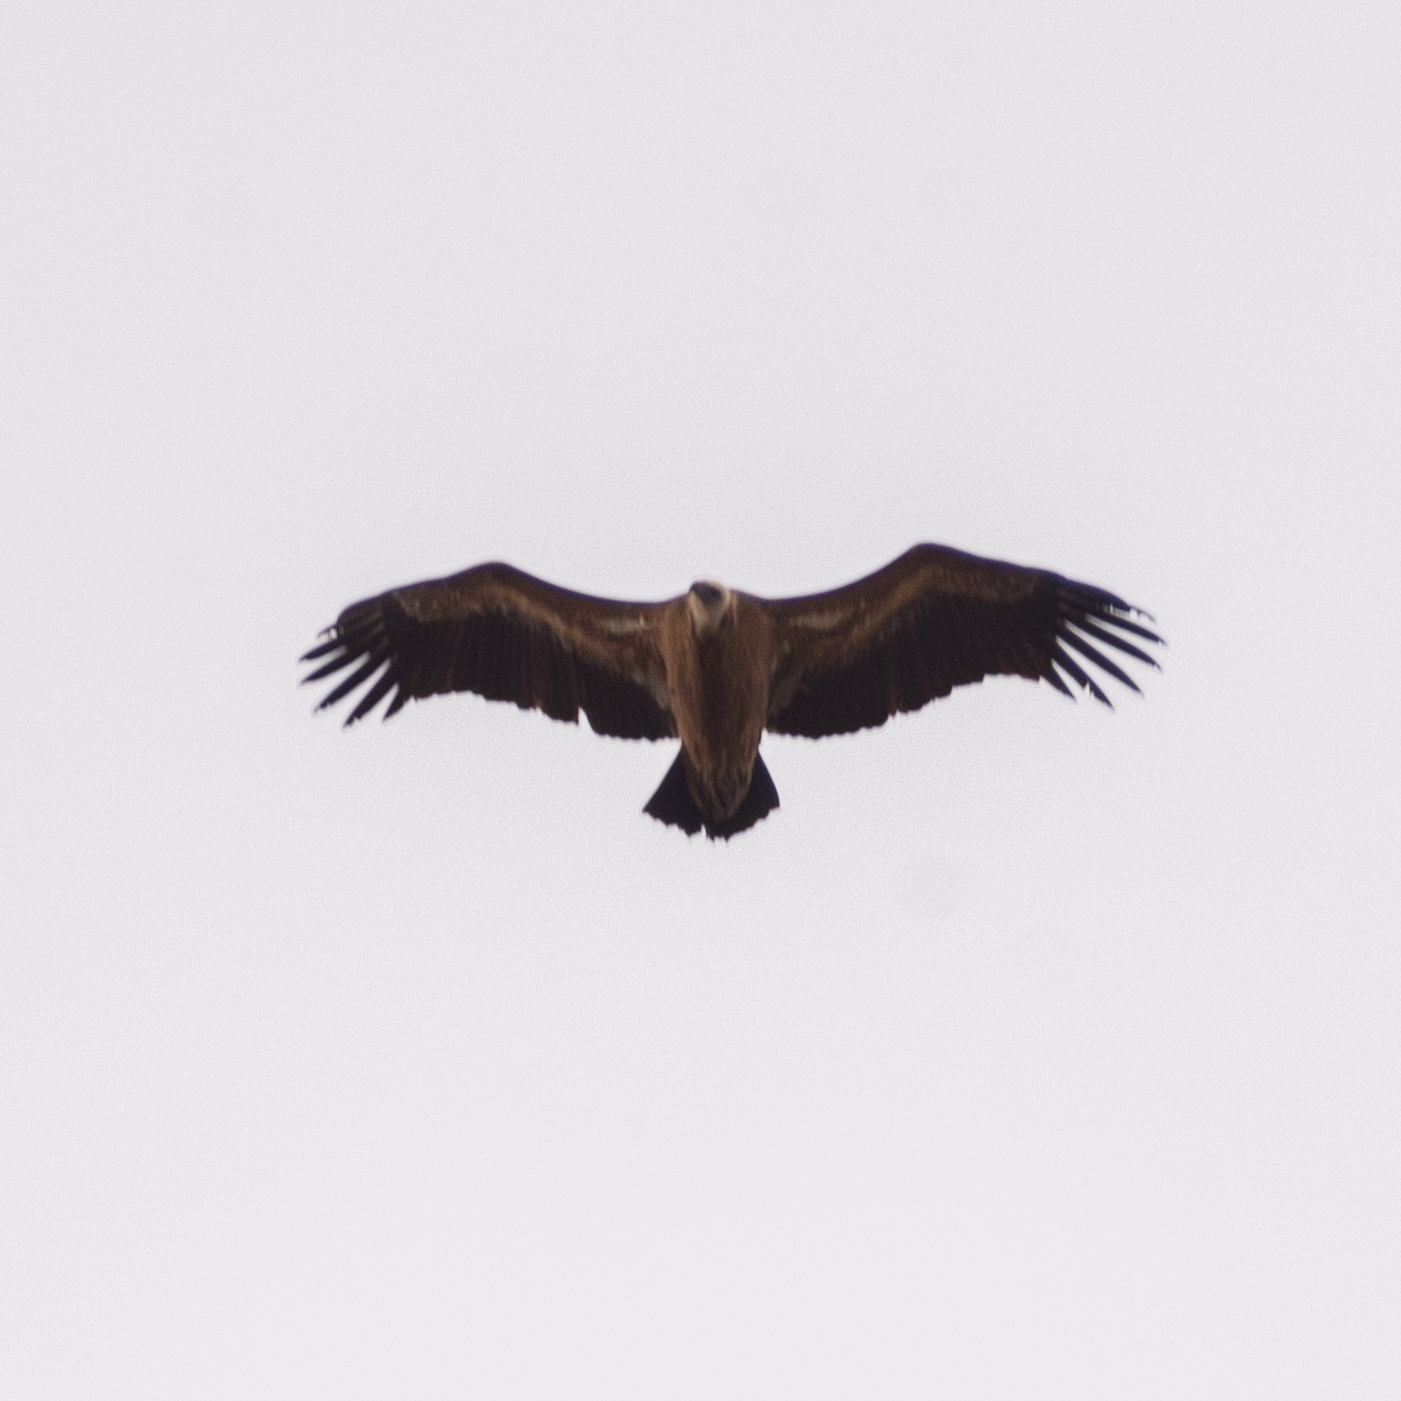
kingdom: Animalia
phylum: Chordata
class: Aves
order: Accipitriformes
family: Accipitridae
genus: Gyps
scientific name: Gyps fulvus
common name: Griffon vulture
